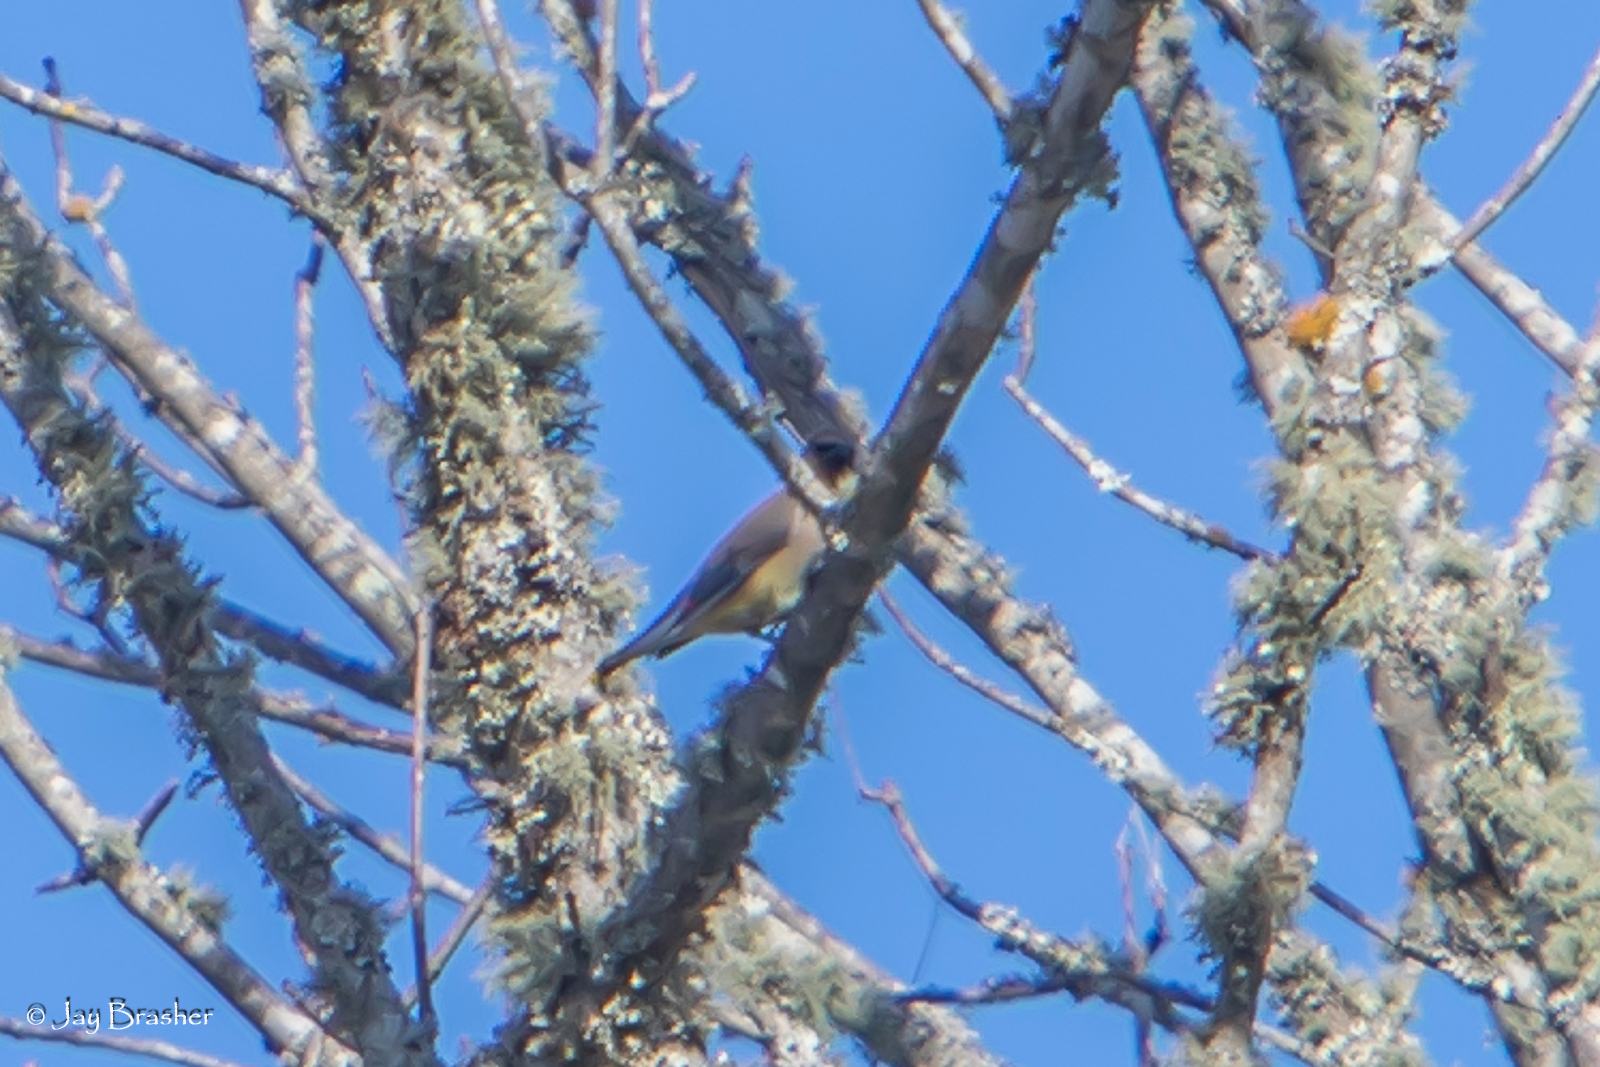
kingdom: Animalia
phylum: Chordata
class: Aves
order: Passeriformes
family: Bombycillidae
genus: Bombycilla
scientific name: Bombycilla cedrorum
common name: Cedar waxwing
